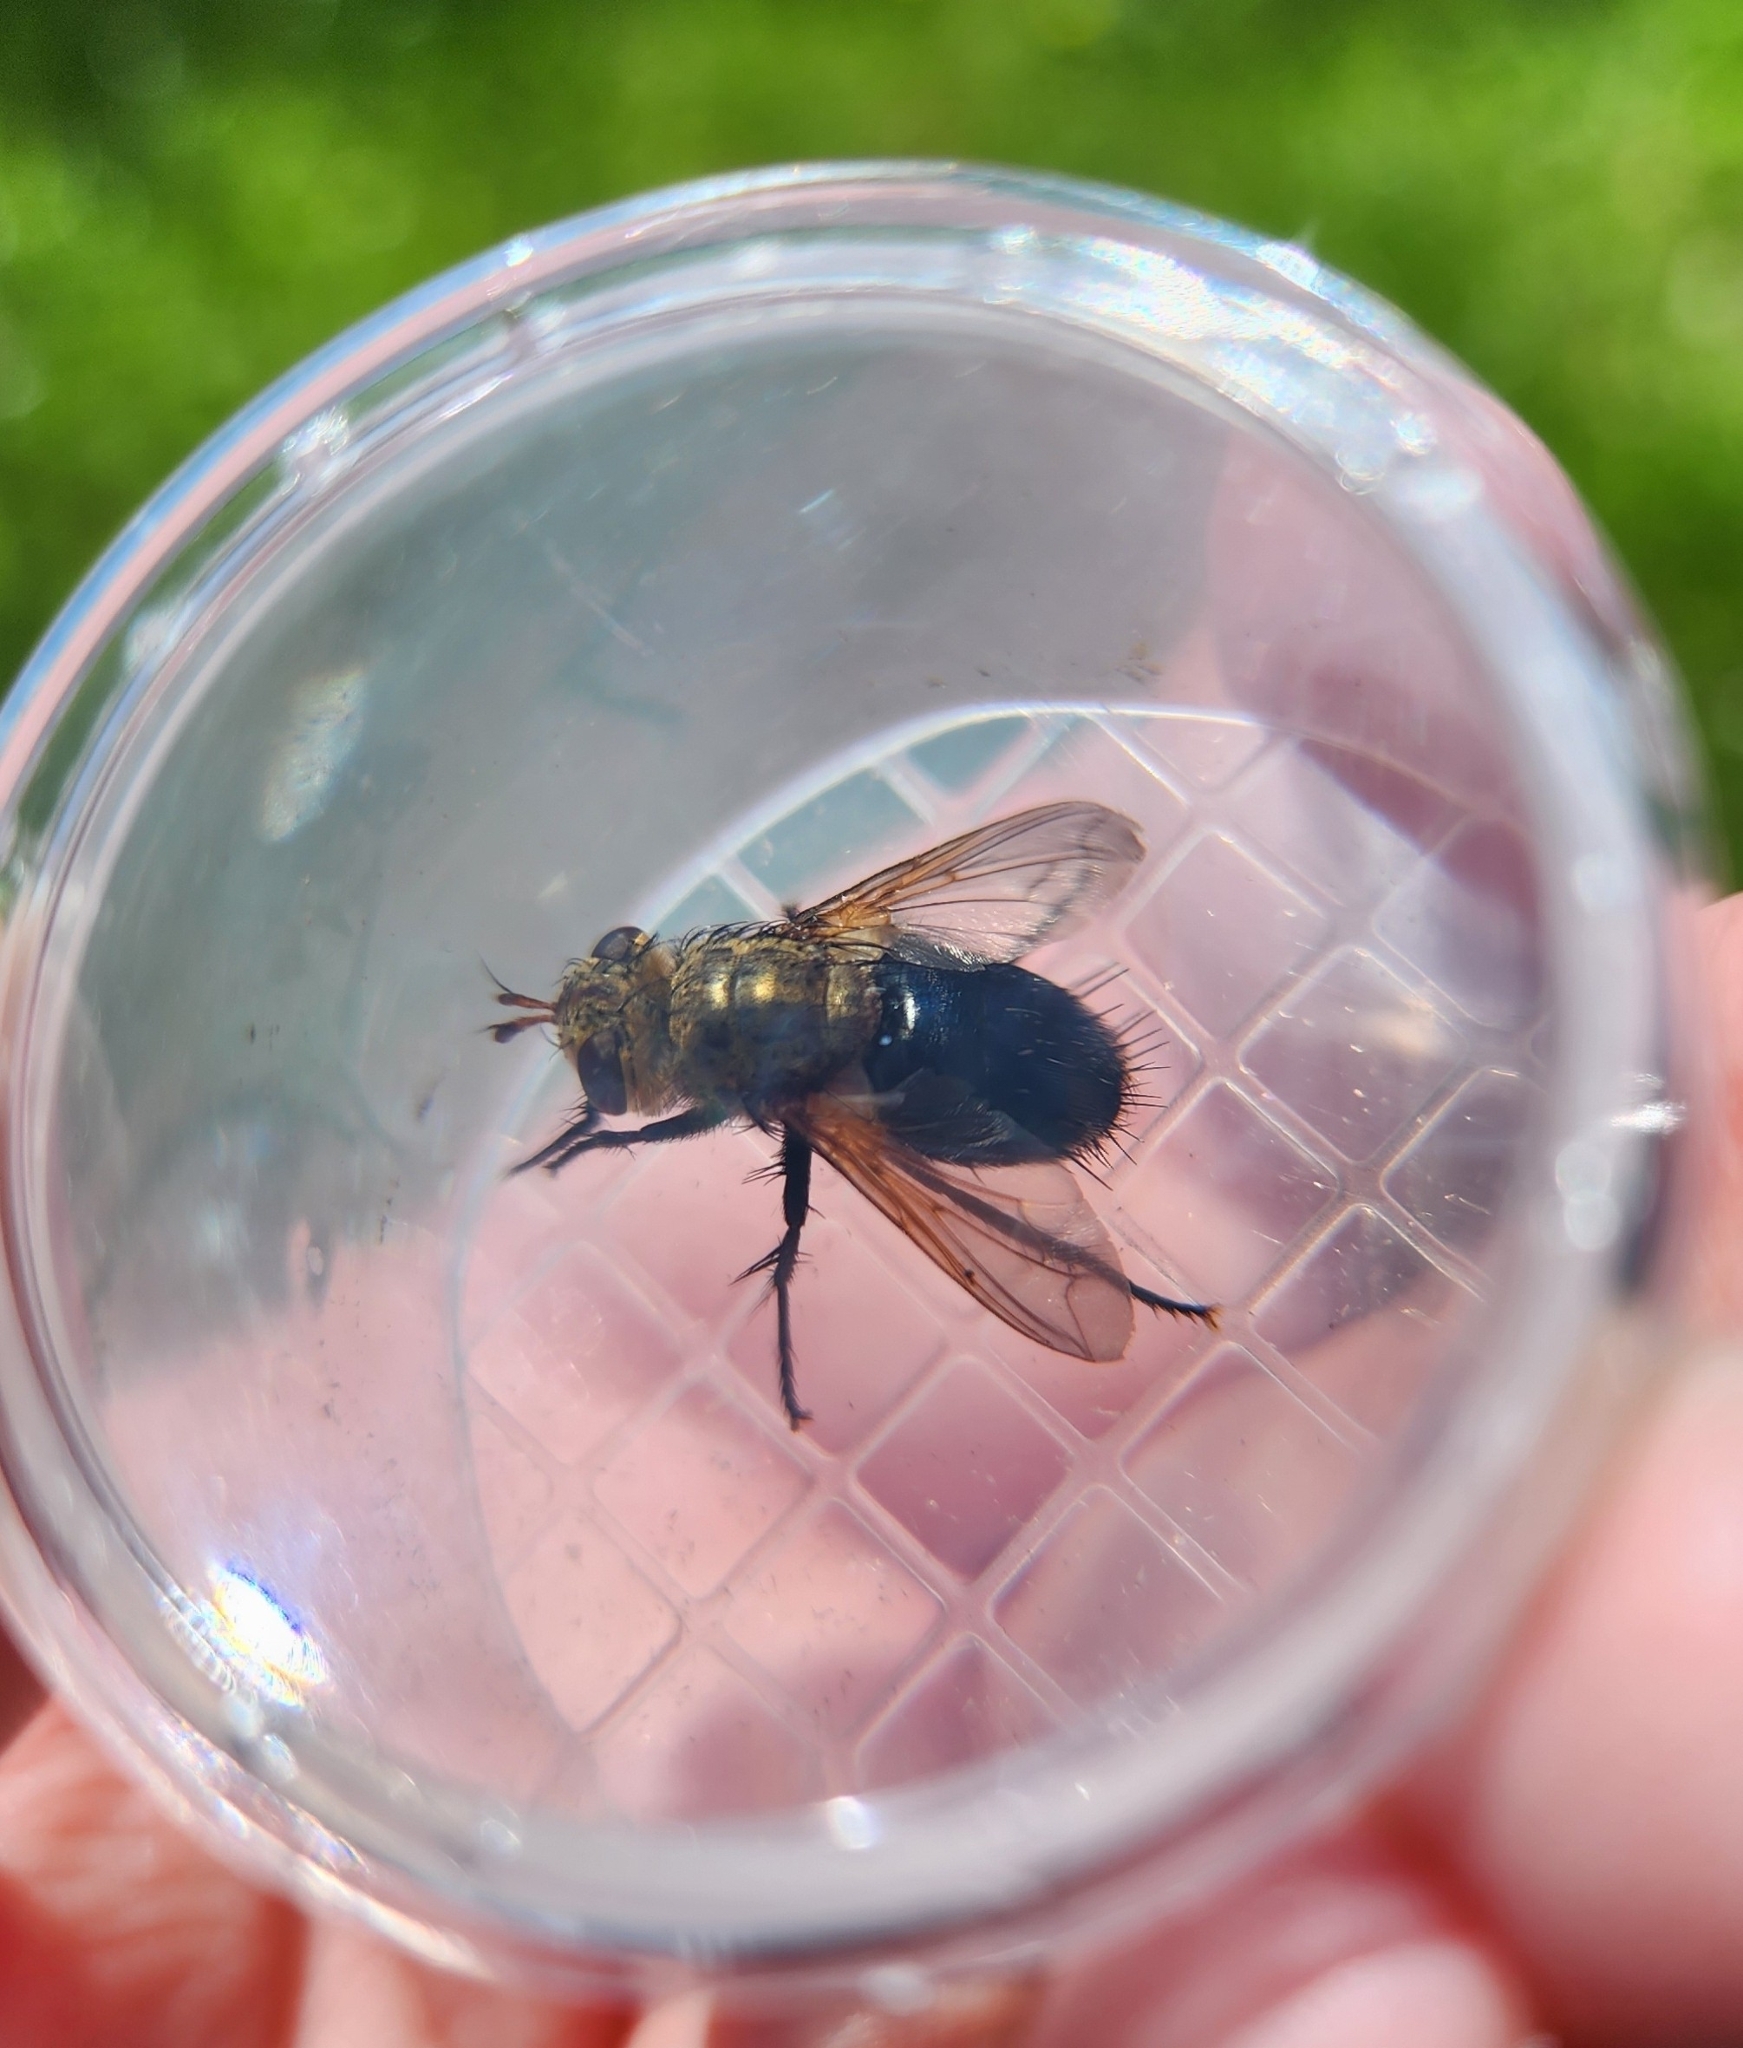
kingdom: Animalia
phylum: Arthropoda
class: Insecta
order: Diptera
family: Tachinidae
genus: Archytas
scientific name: Archytas apicifer
